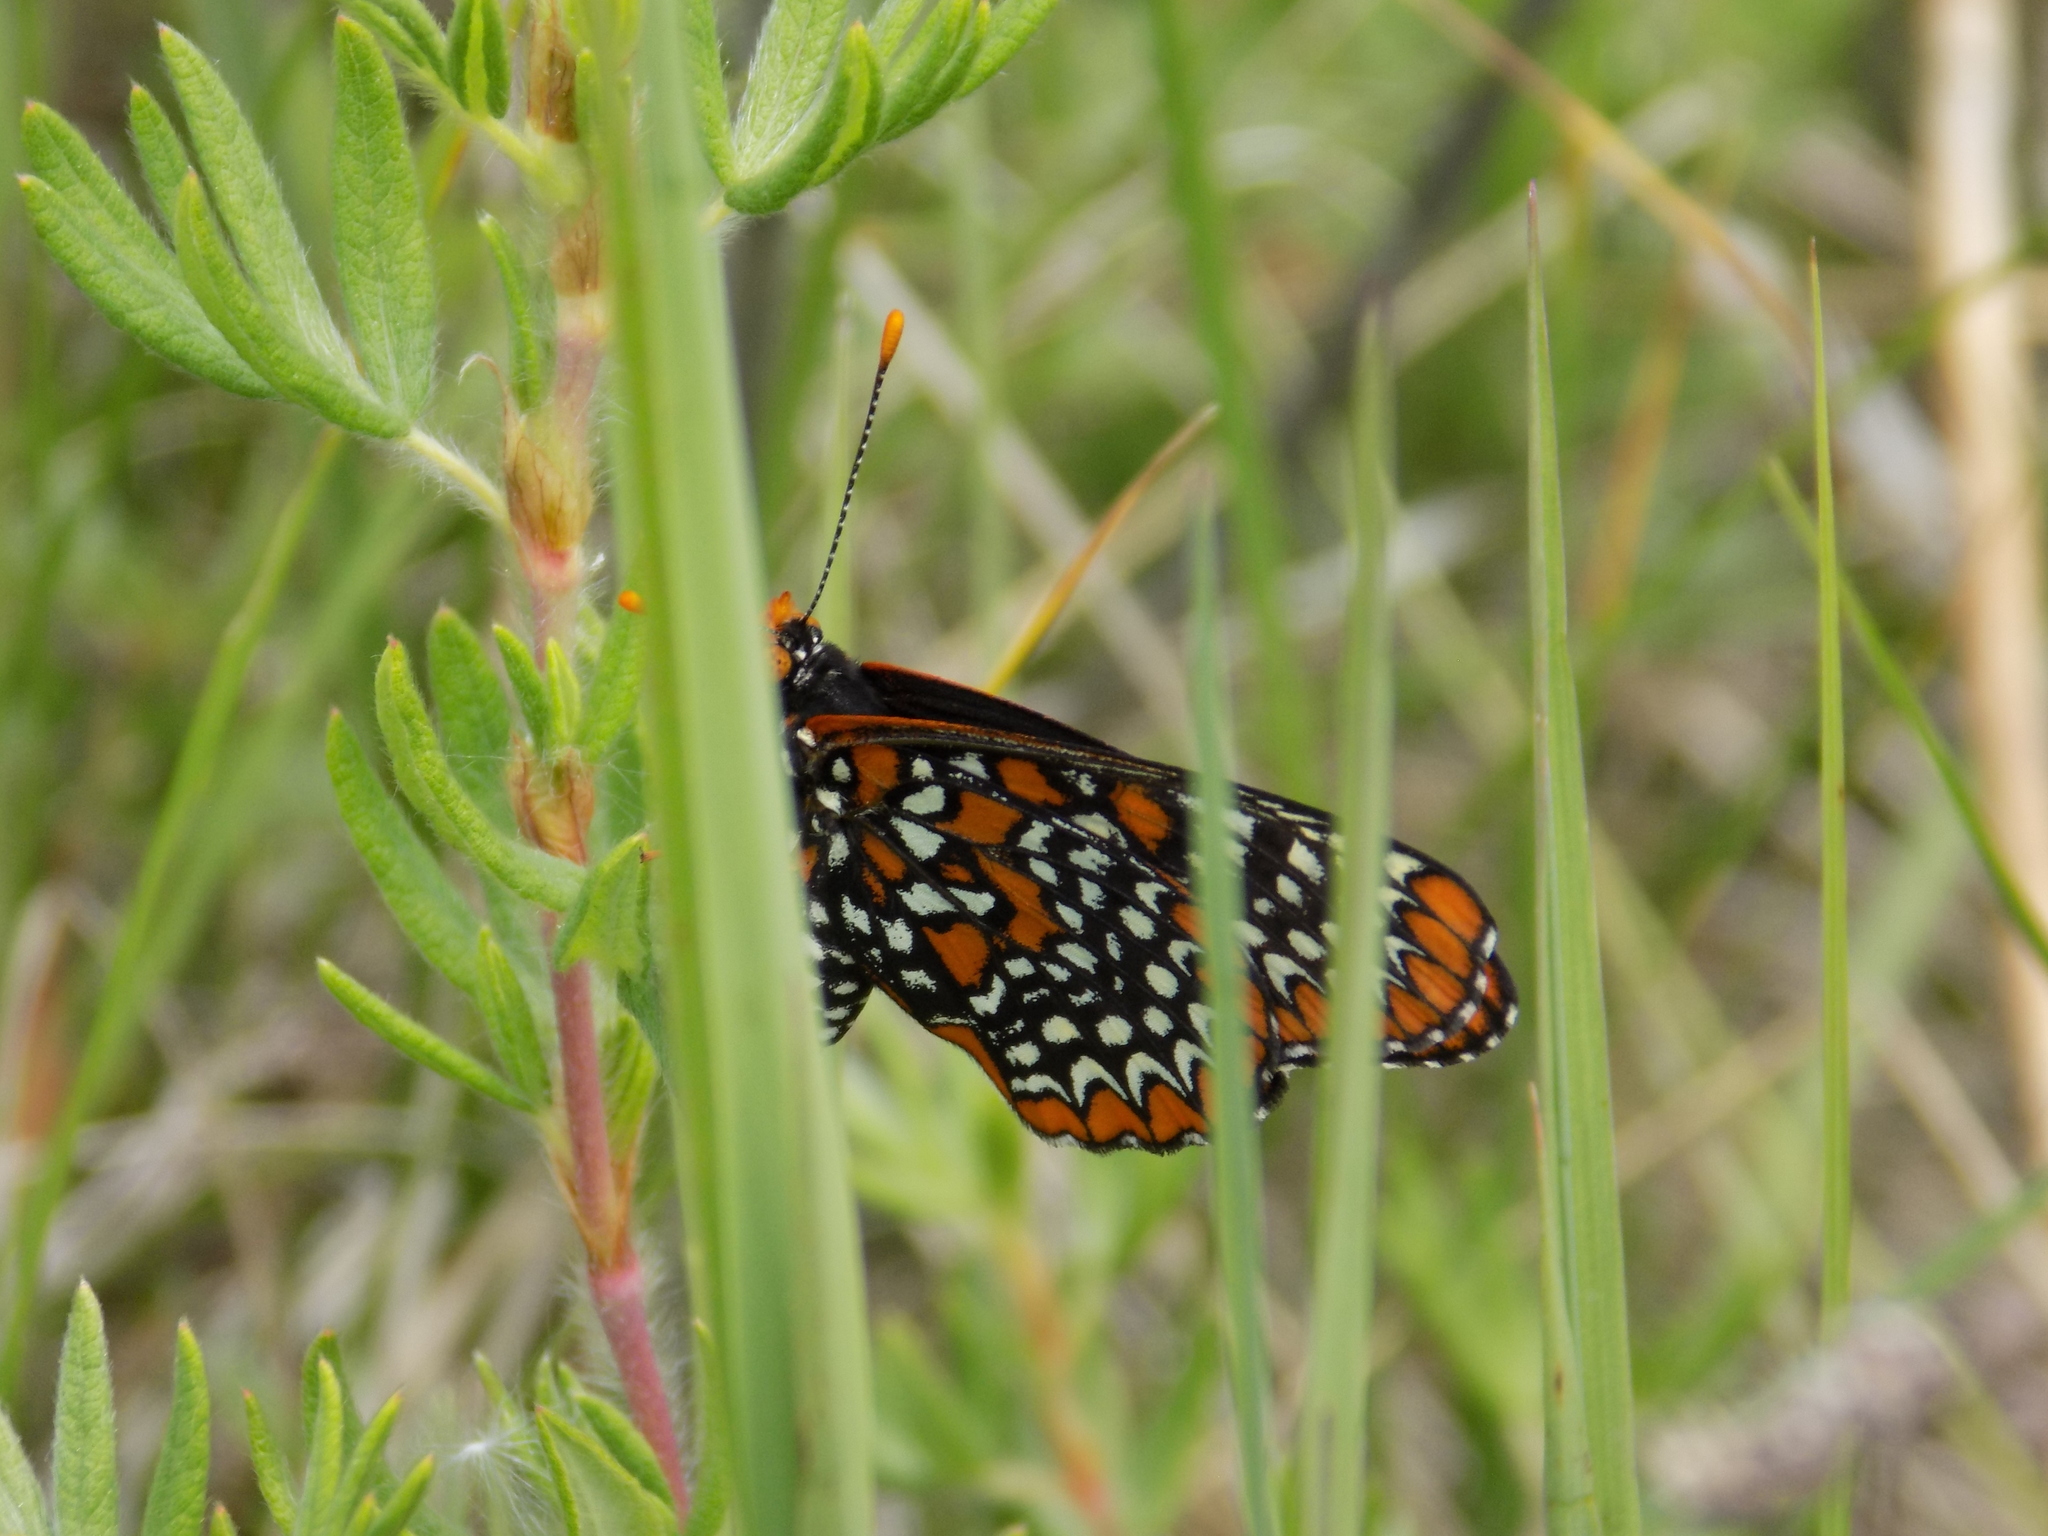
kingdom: Animalia
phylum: Arthropoda
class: Insecta
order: Lepidoptera
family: Nymphalidae
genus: Euphydryas
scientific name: Euphydryas phaeton
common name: Baltimore checkerspot
